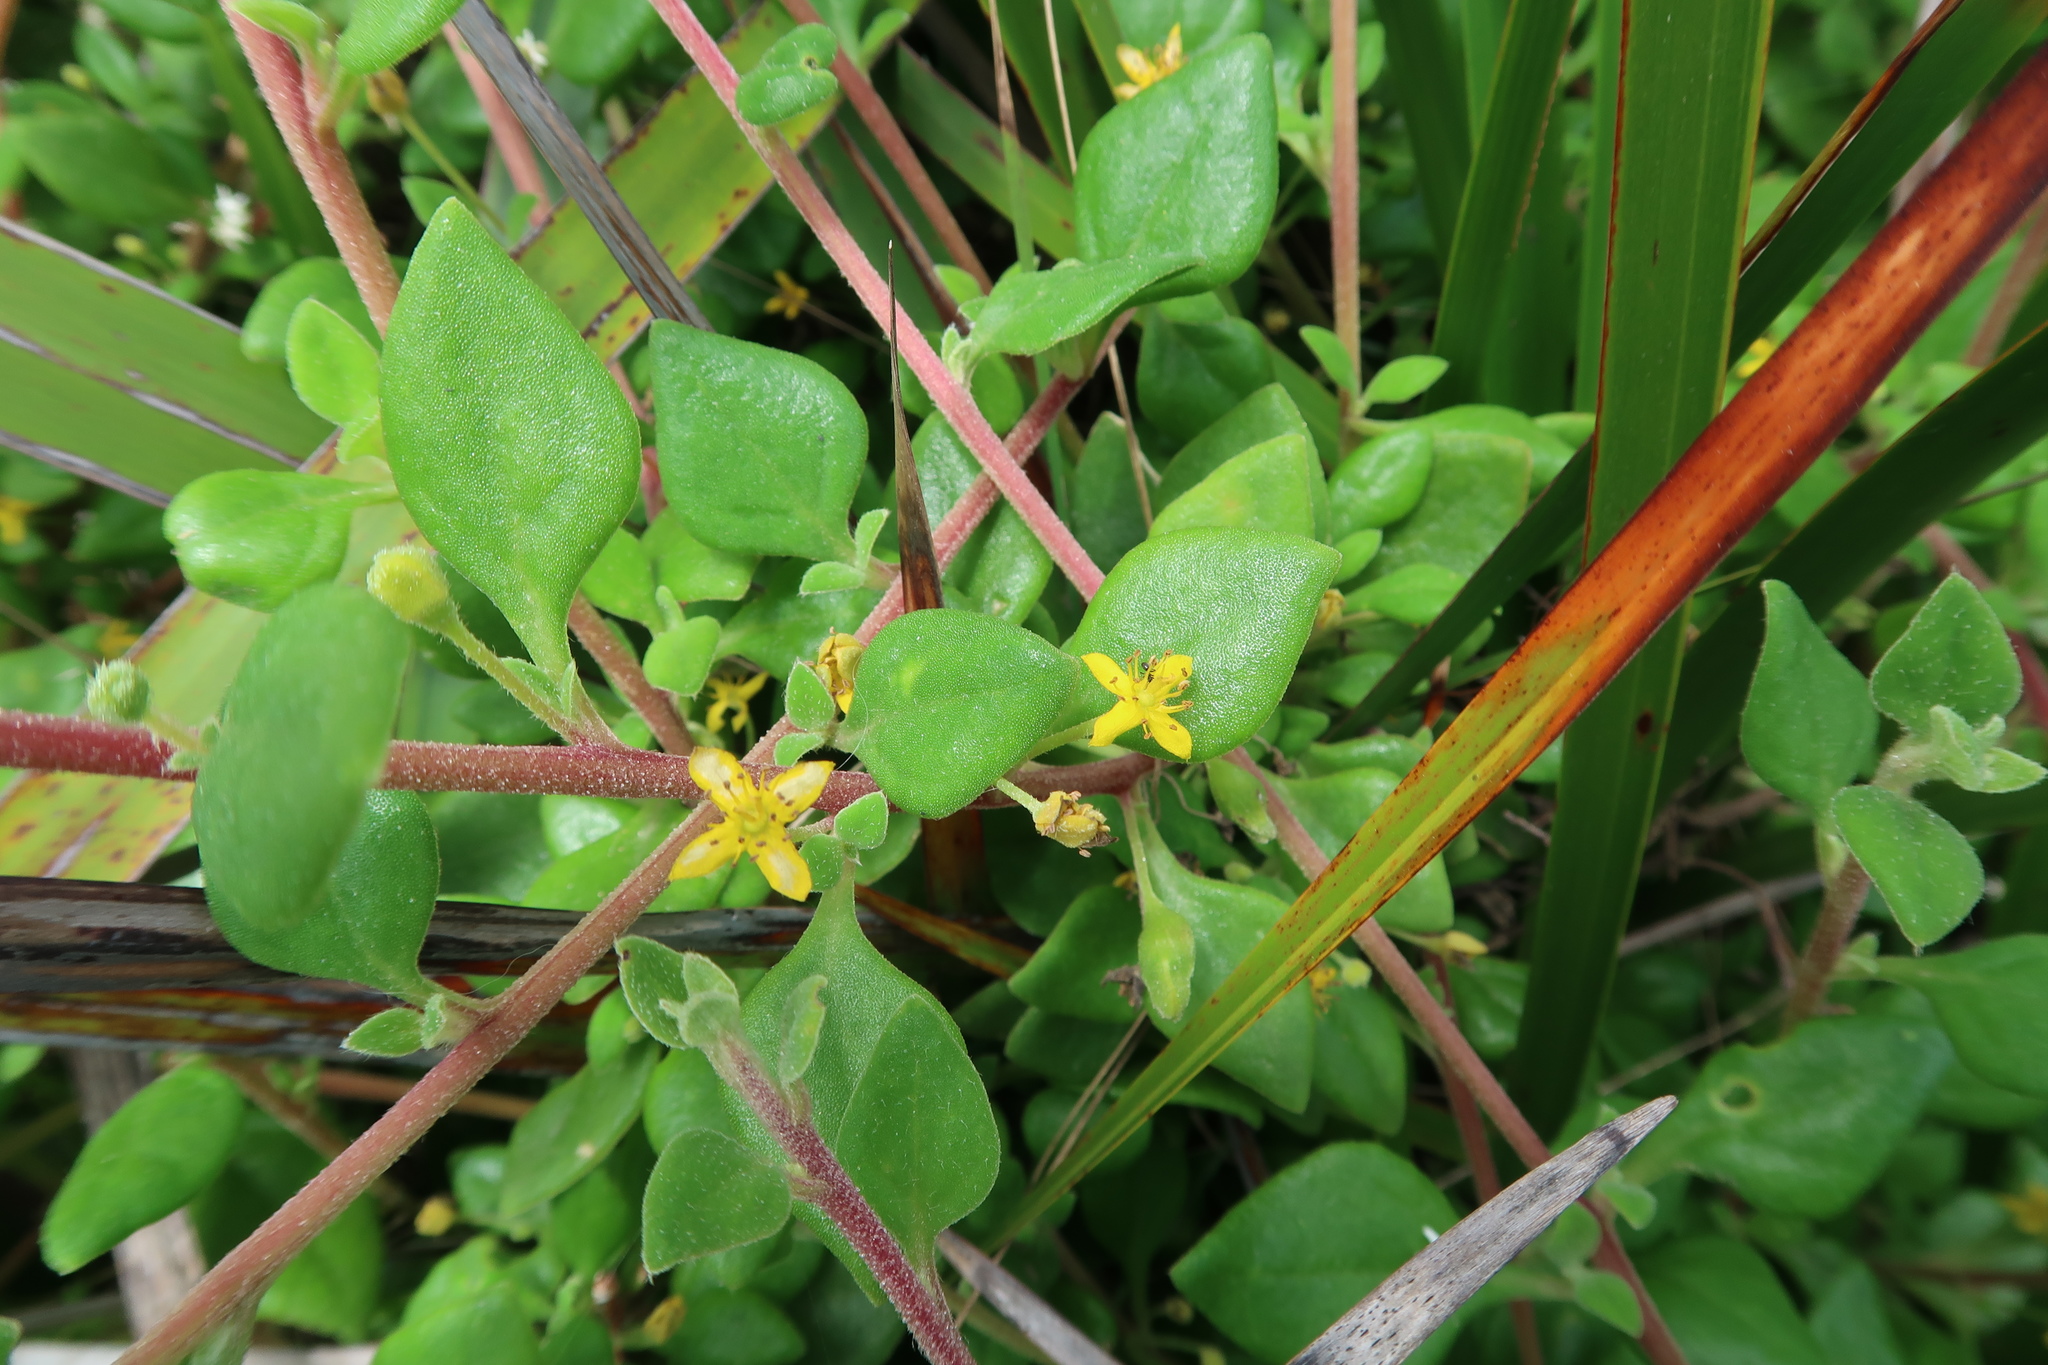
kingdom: Plantae
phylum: Tracheophyta
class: Magnoliopsida
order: Caryophyllales
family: Aizoaceae
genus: Tetragonia
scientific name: Tetragonia implexicoma
